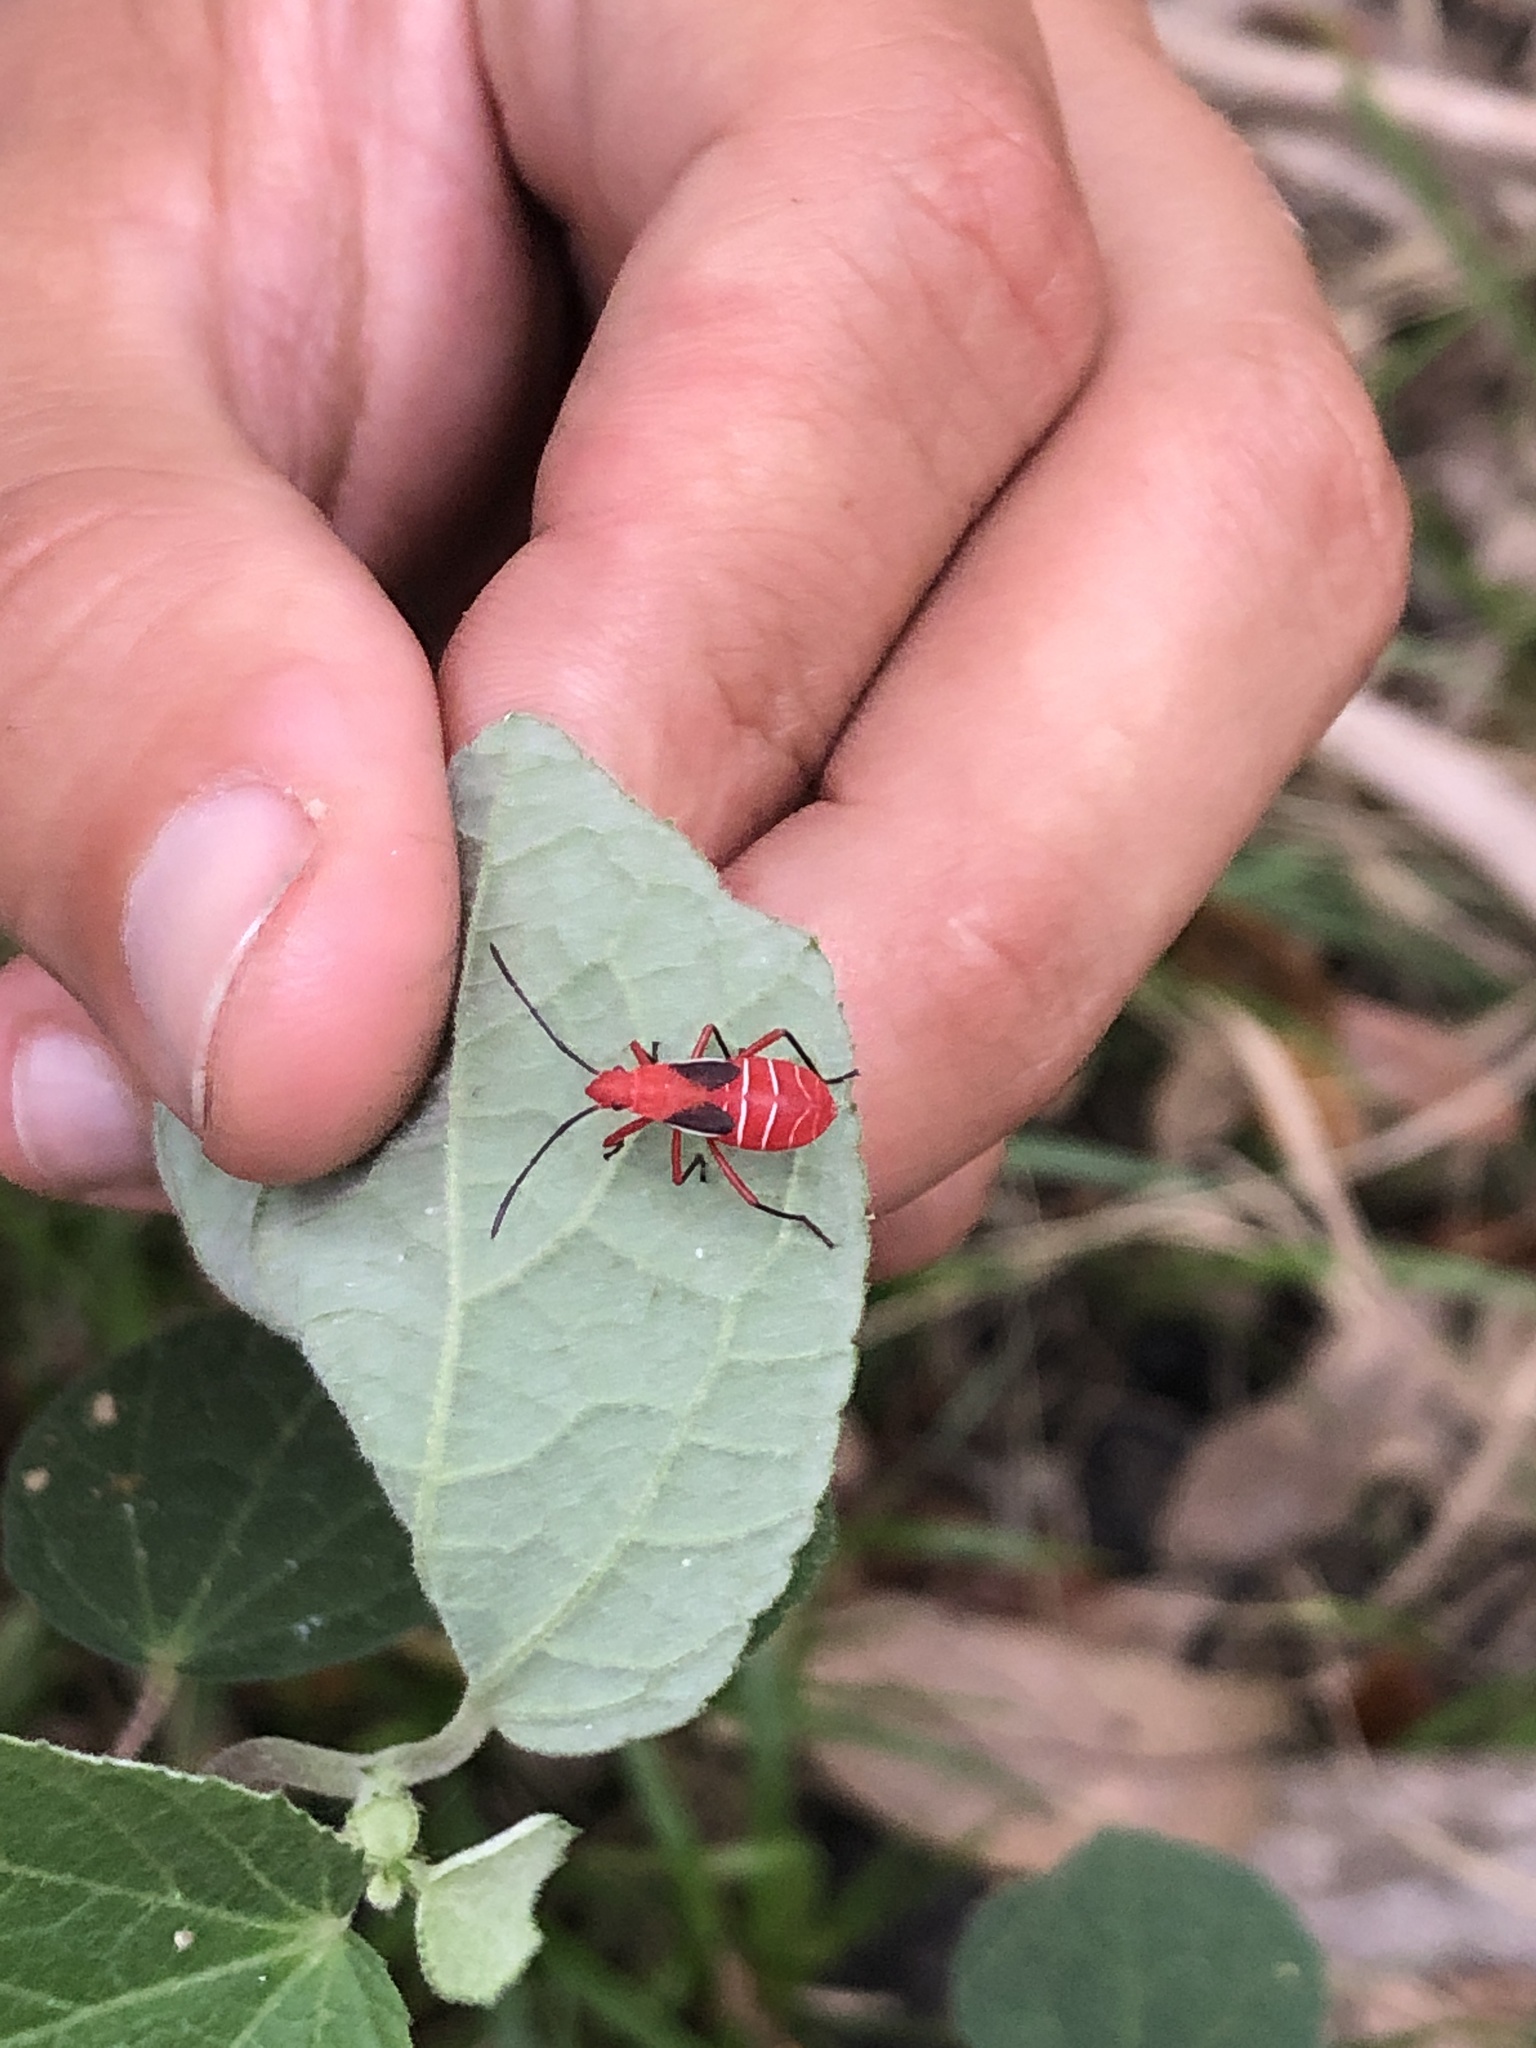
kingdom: Animalia
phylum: Arthropoda
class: Insecta
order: Hemiptera
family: Pyrrhocoridae
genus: Dysdercus
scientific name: Dysdercus suturellus
